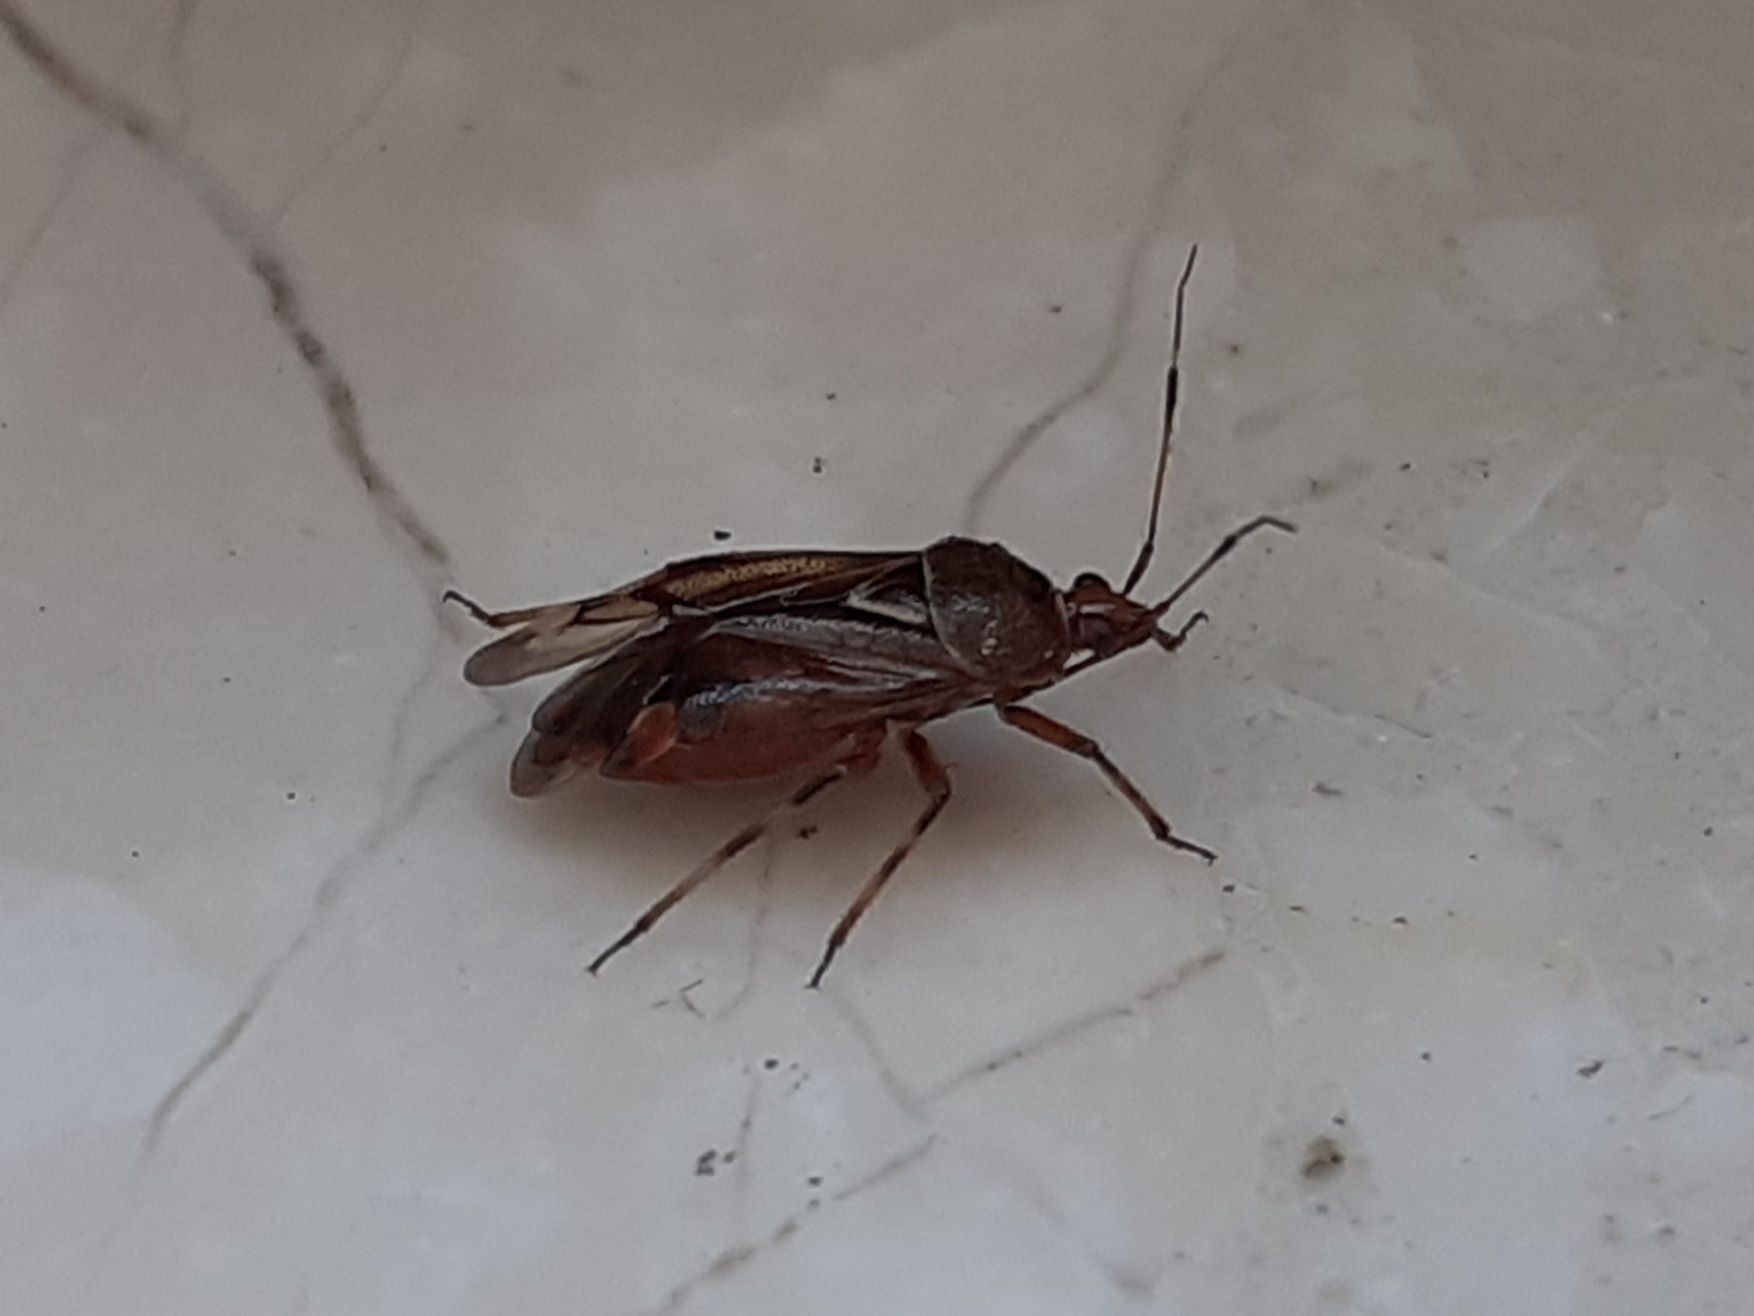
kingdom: Animalia
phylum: Arthropoda
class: Insecta
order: Hemiptera
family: Miridae
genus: Deraeocoris
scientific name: Deraeocoris flavilinea
